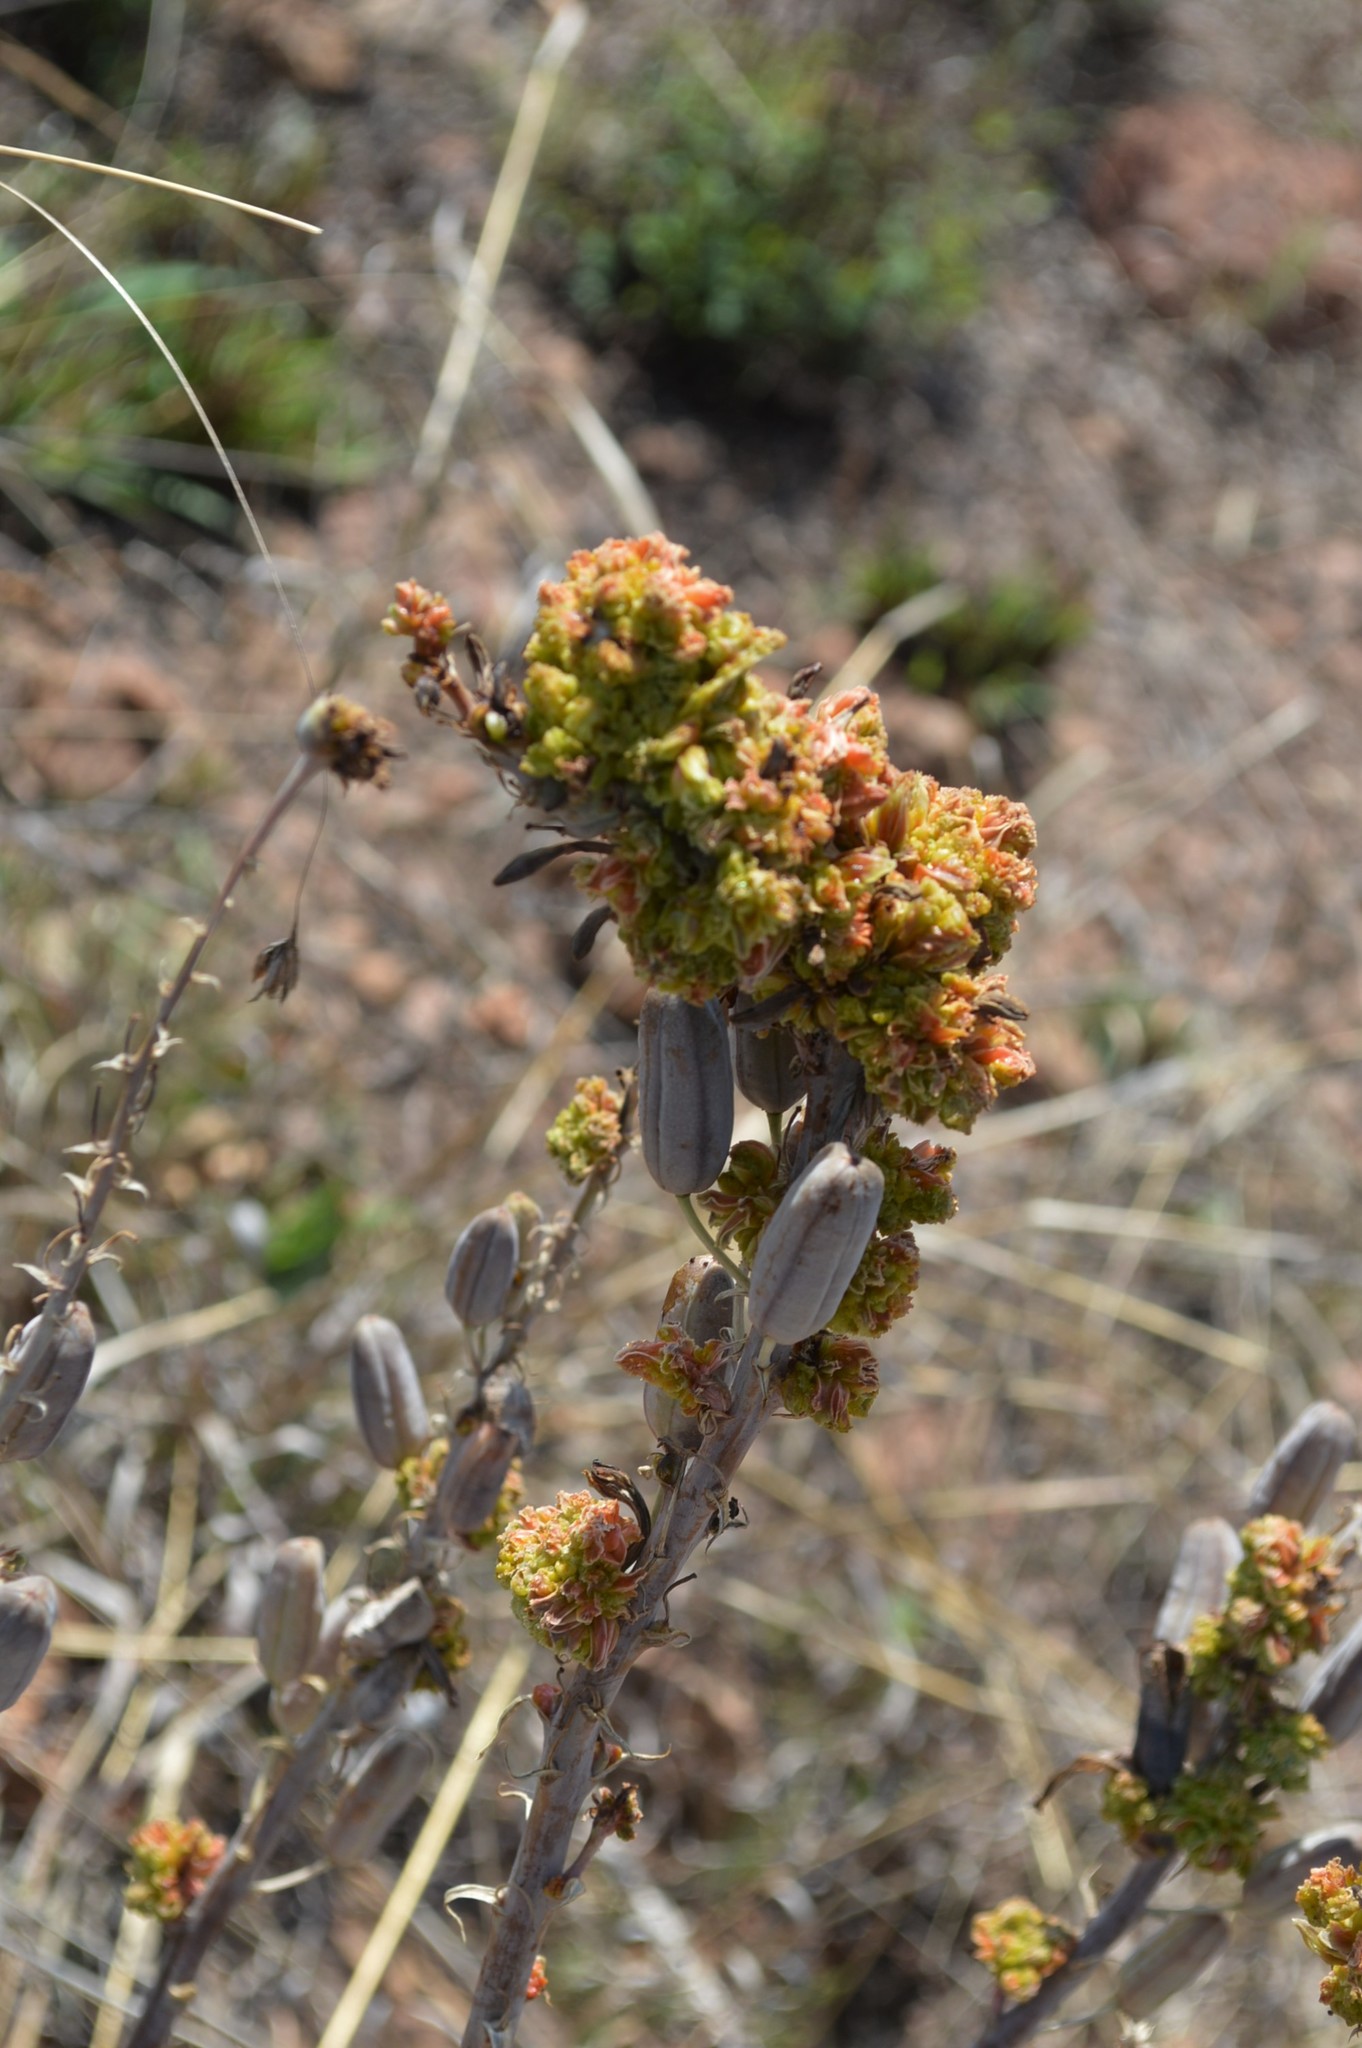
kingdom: Animalia
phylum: Arthropoda
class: Arachnida
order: Trombidiformes
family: Eriophyidae
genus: Aceria
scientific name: Aceria aloinis
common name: Mite
